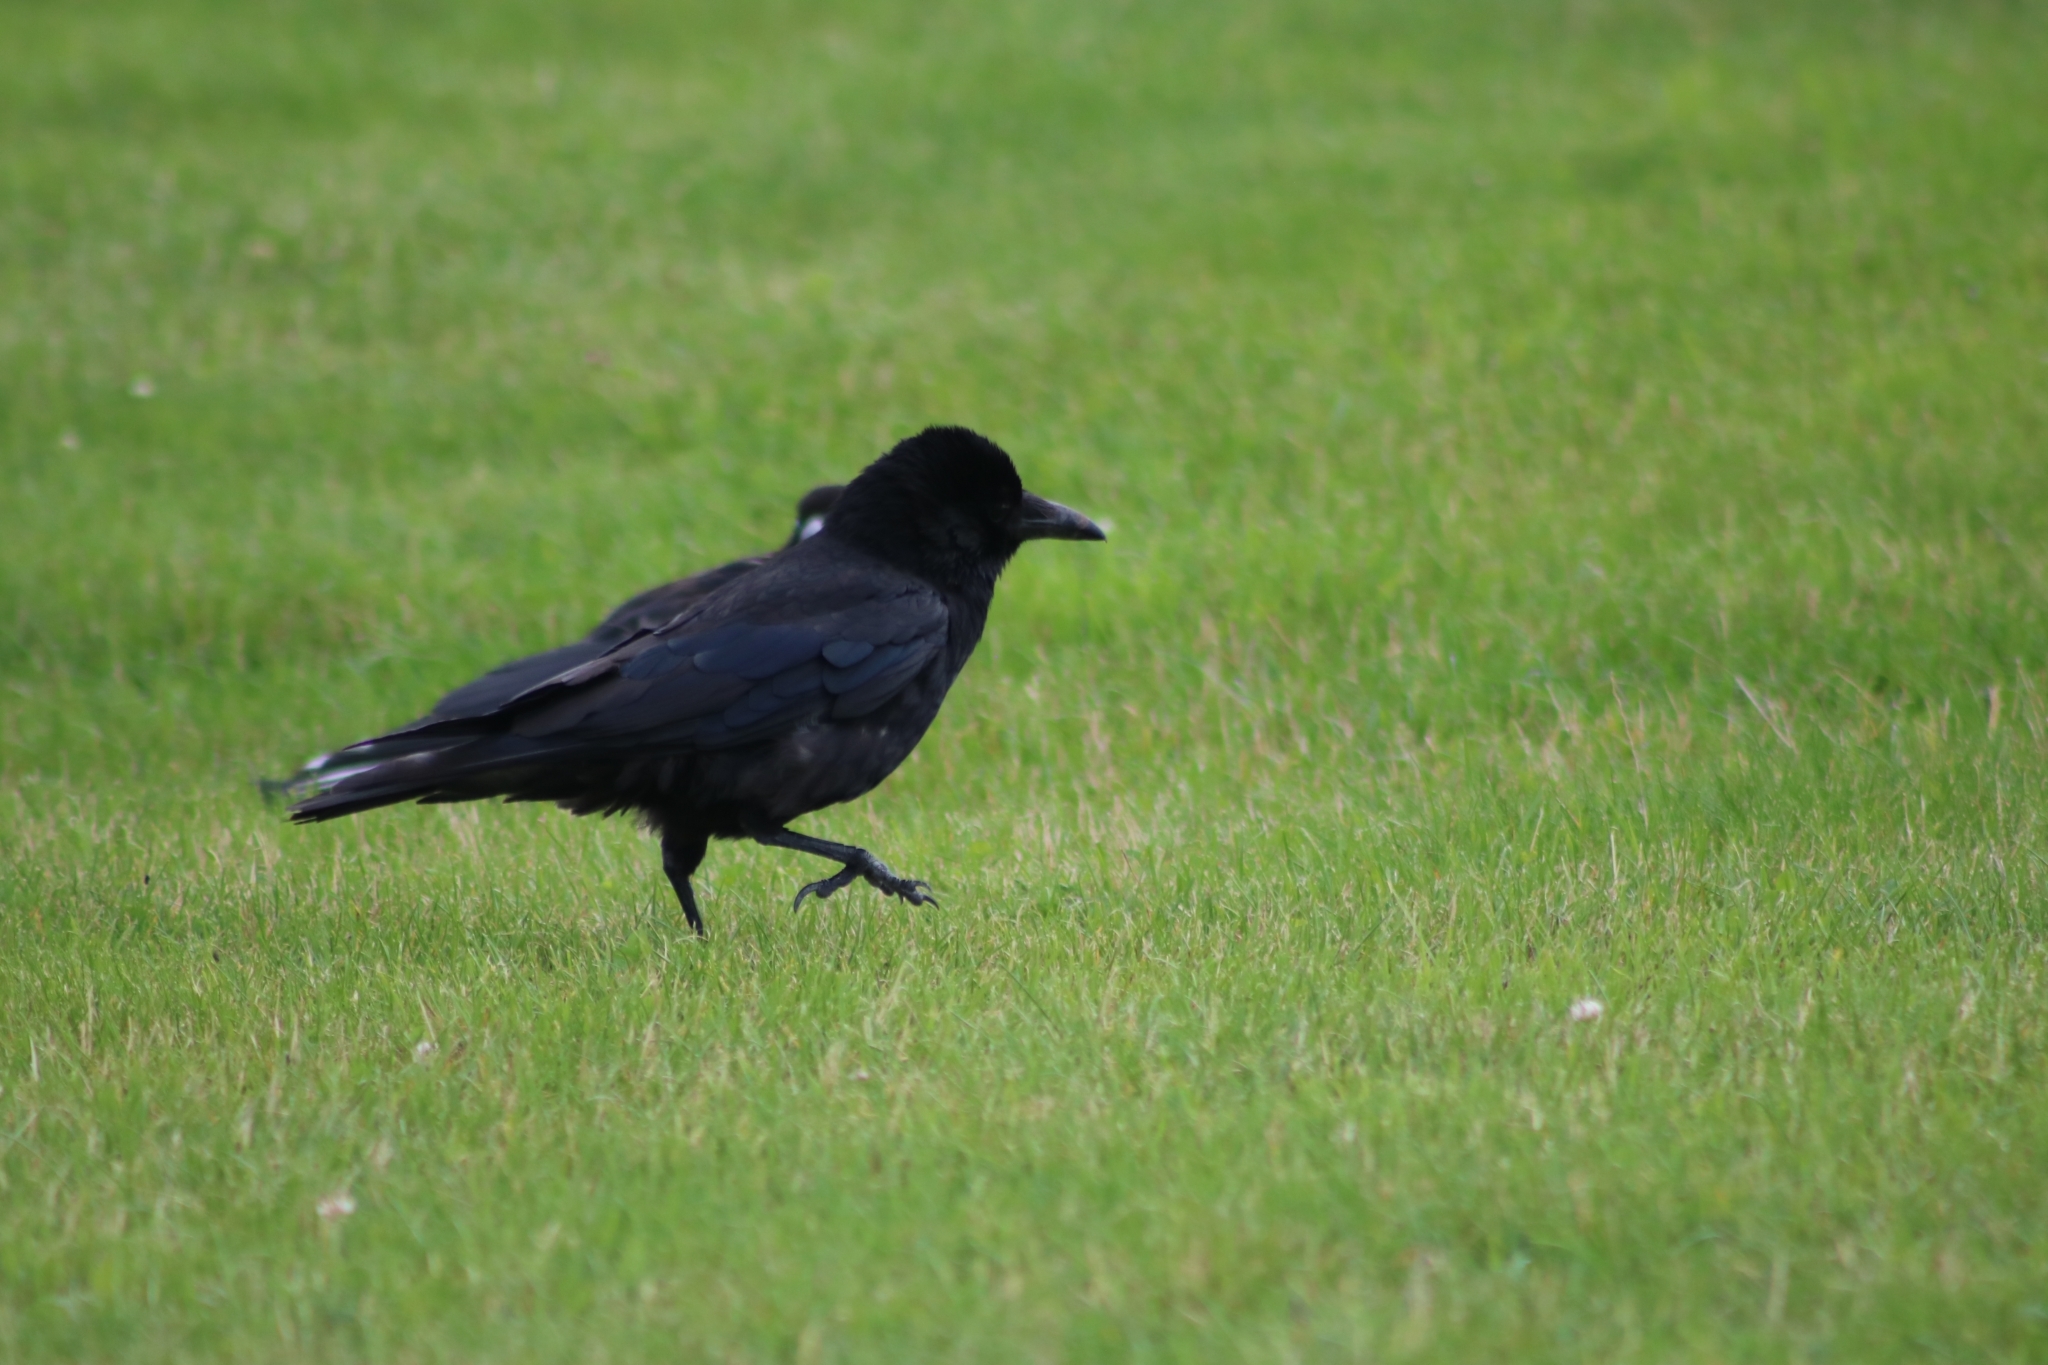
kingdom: Animalia
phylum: Chordata
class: Aves
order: Passeriformes
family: Corvidae
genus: Corvus
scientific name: Corvus corone
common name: Carrion crow
